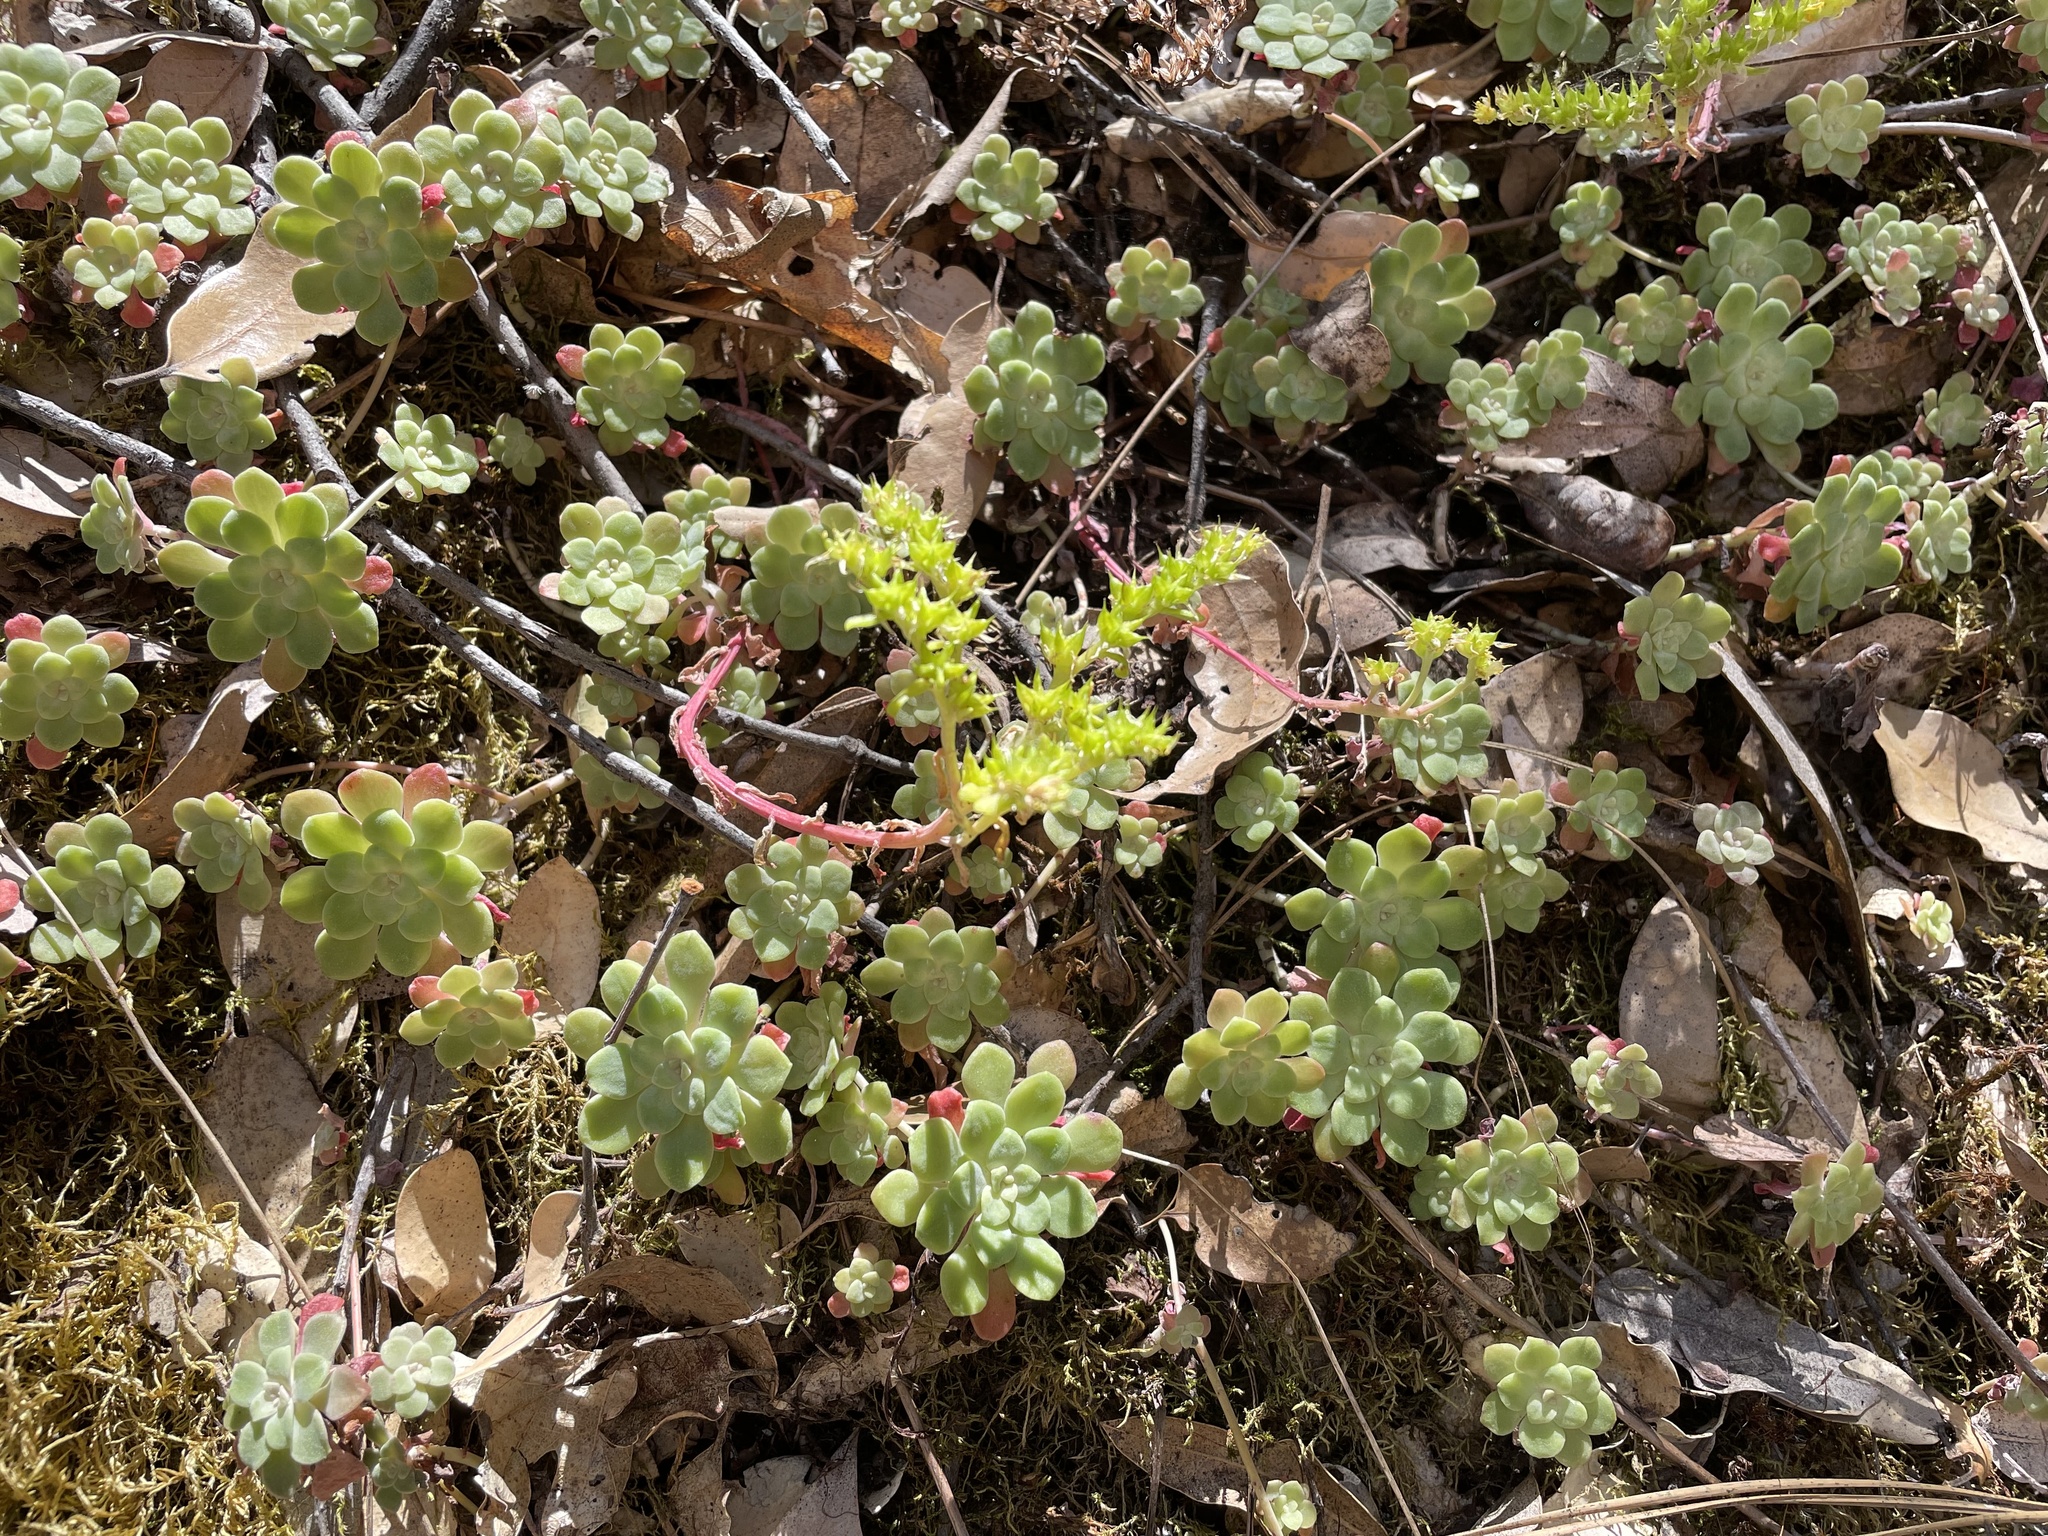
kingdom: Plantae
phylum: Tracheophyta
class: Magnoliopsida
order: Saxifragales
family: Crassulaceae
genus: Sedum
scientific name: Sedum spathulifolium
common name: Colorado stonecrop
